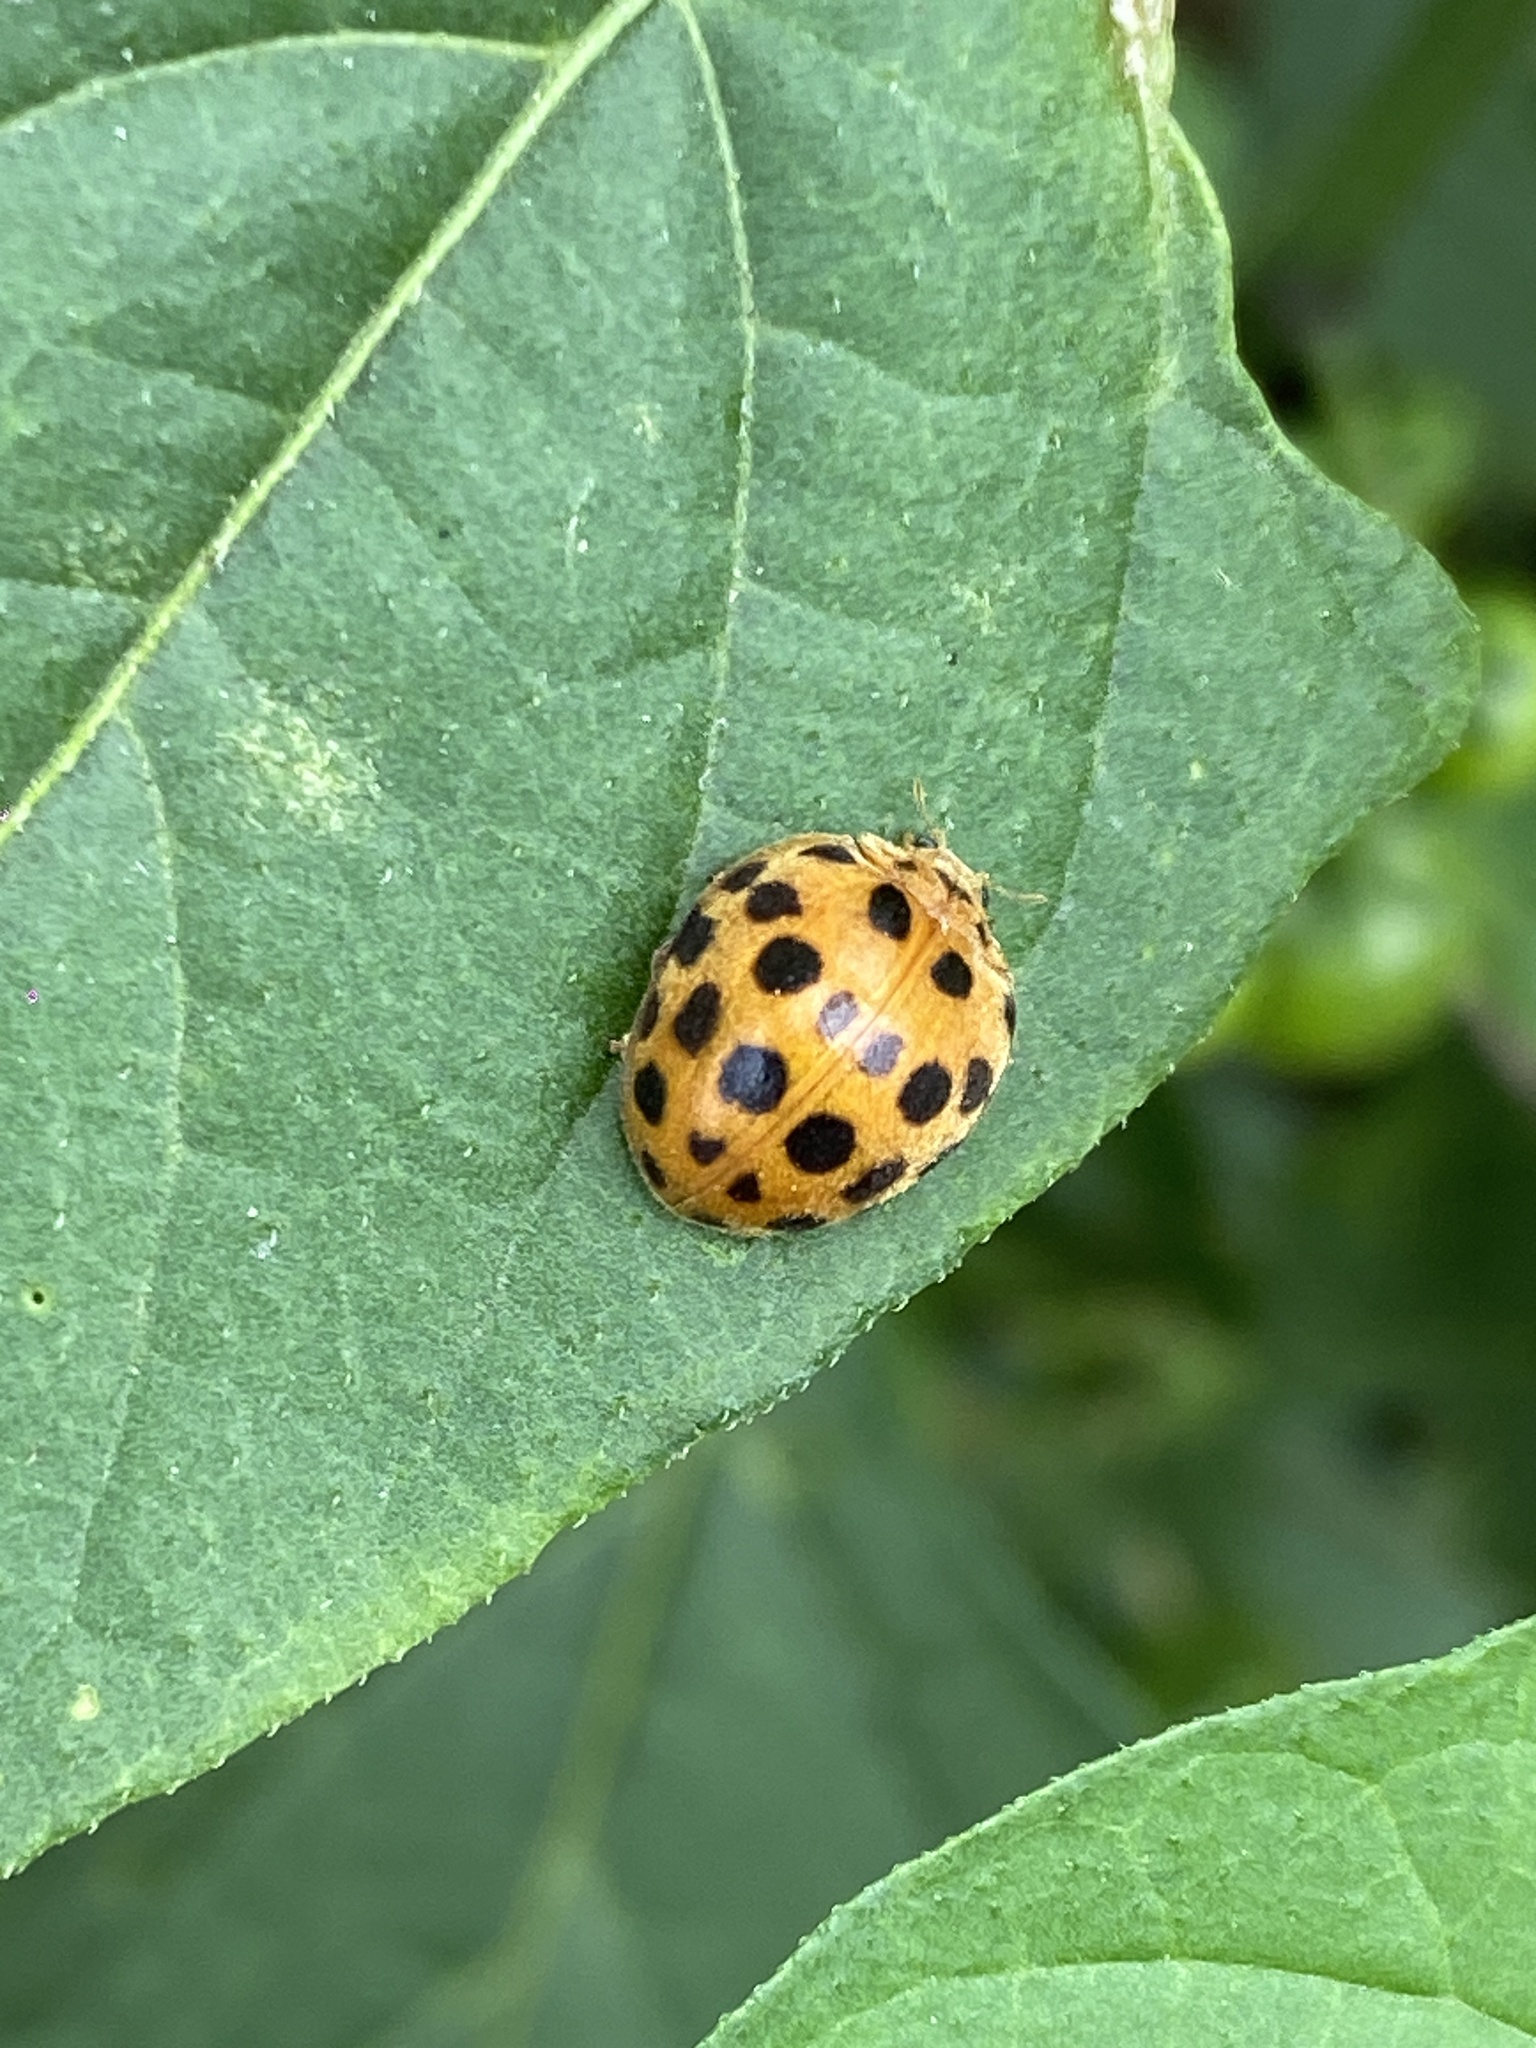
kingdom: Animalia
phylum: Arthropoda
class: Insecta
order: Coleoptera
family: Coccinellidae
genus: Henosepilachna
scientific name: Henosepilachna vigintioctopunctata
